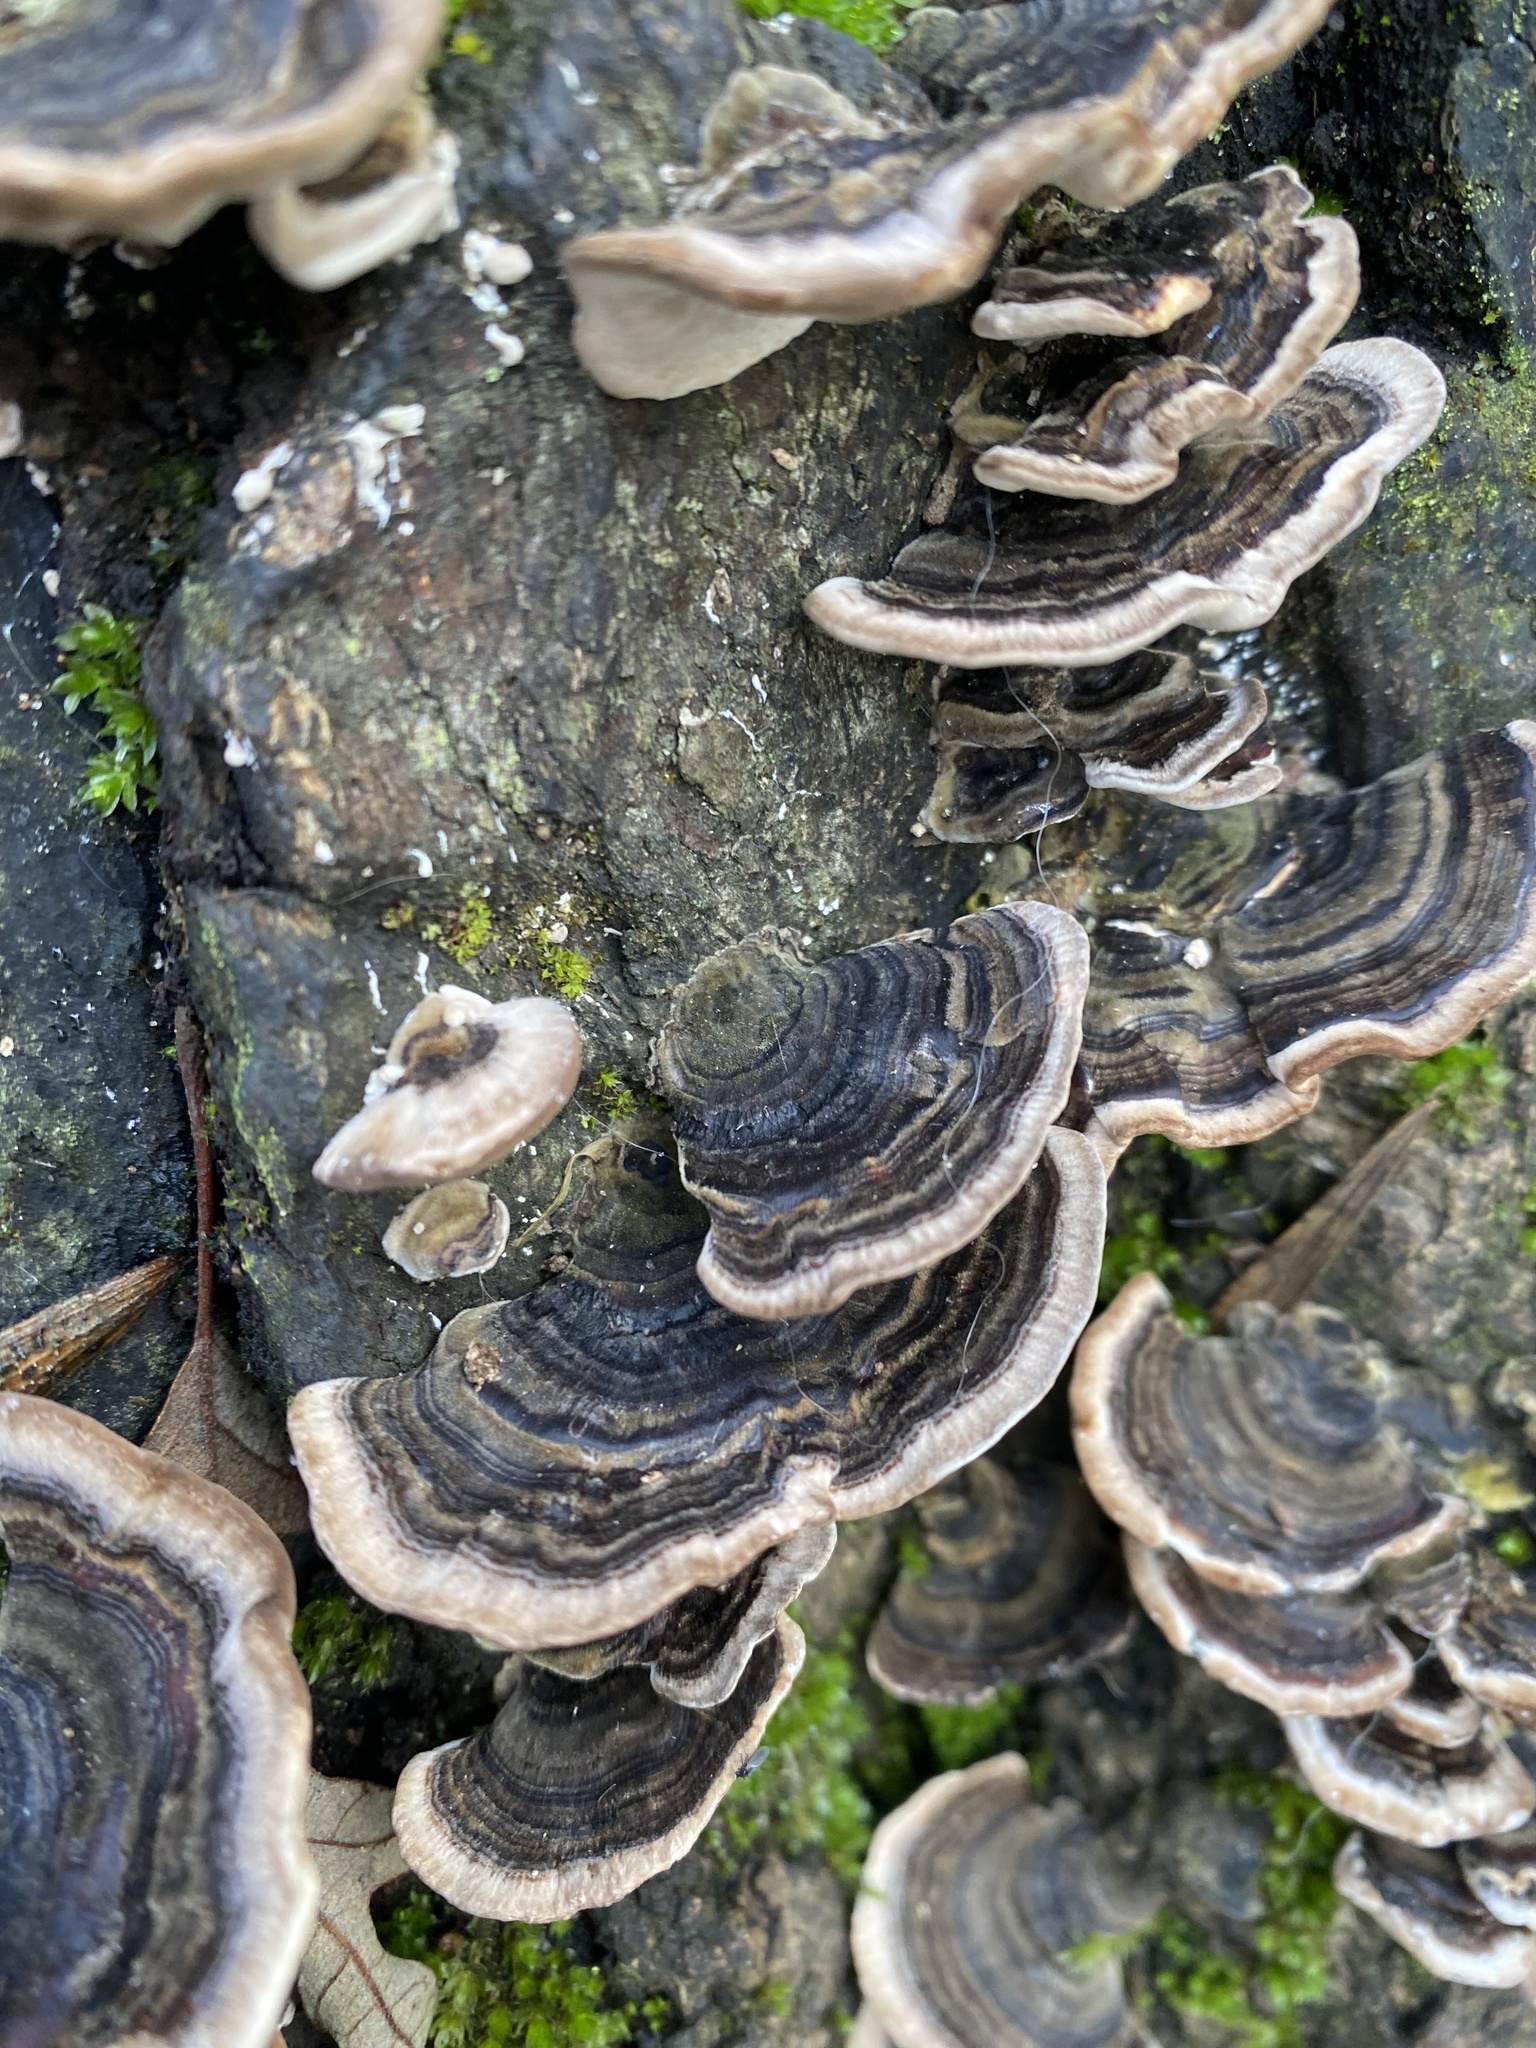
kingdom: Fungi
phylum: Basidiomycota
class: Agaricomycetes
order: Polyporales
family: Polyporaceae
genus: Trametes
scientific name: Trametes versicolor
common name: Turkeytail
